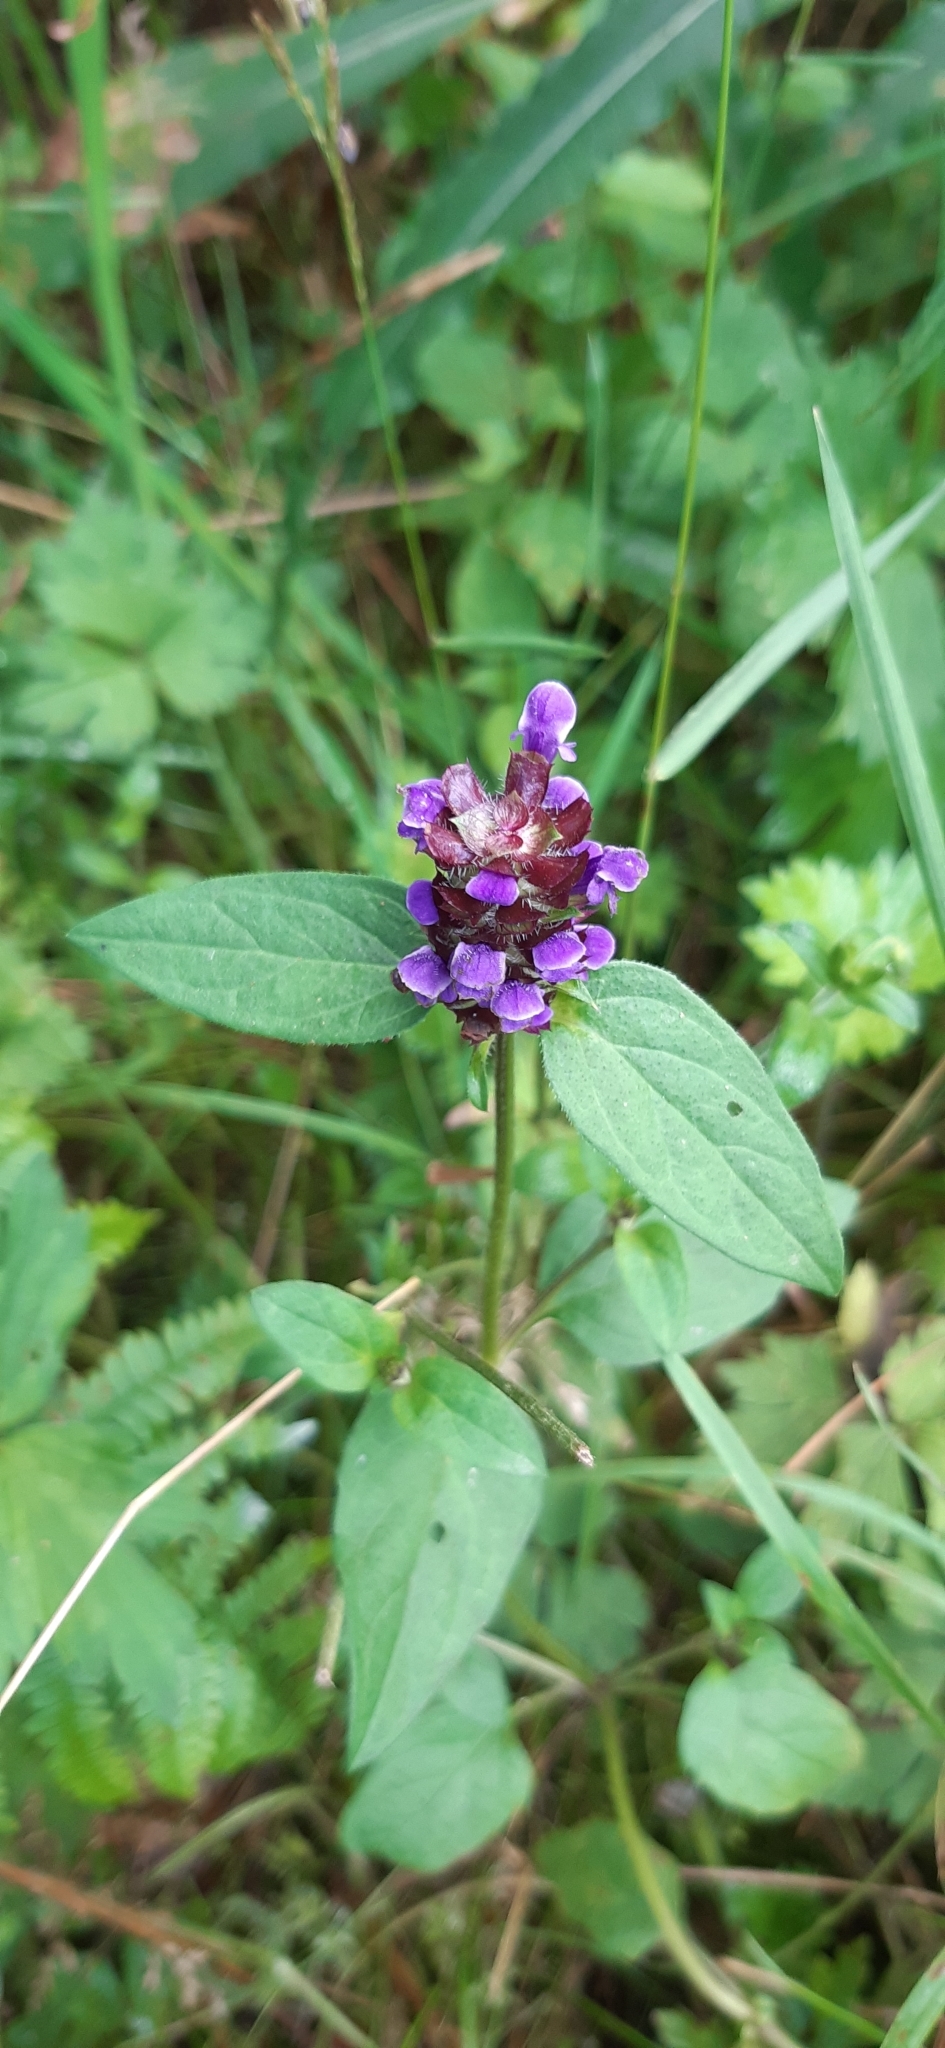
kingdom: Plantae
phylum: Tracheophyta
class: Magnoliopsida
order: Lamiales
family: Lamiaceae
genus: Prunella
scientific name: Prunella vulgaris
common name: Heal-all
